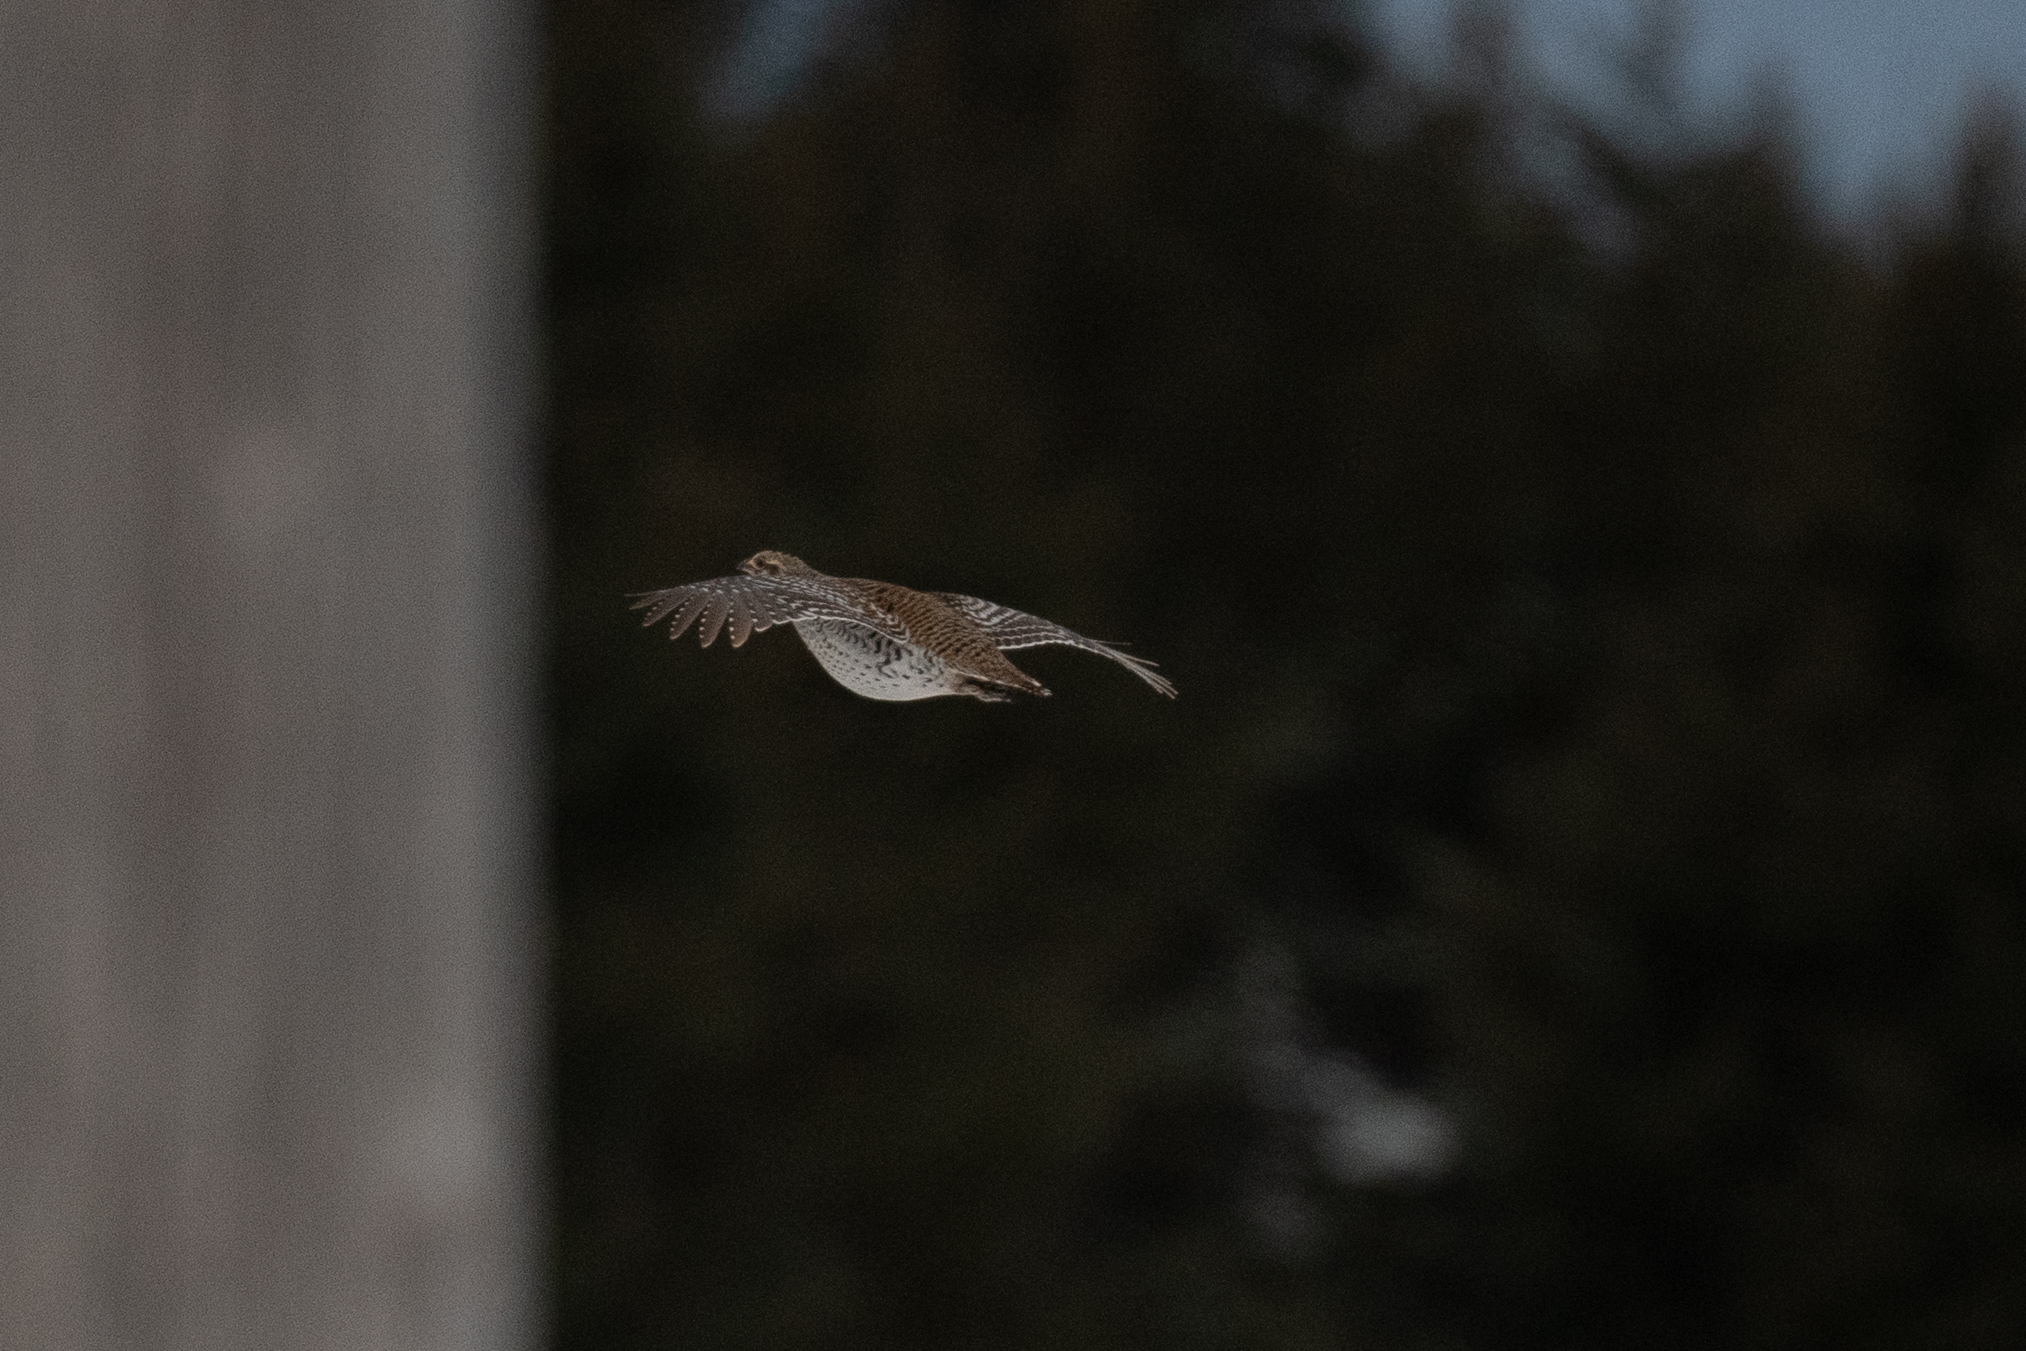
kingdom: Animalia
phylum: Chordata
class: Aves
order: Galliformes
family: Phasianidae
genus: Tympanuchus
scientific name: Tympanuchus phasianellus
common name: Sharp-tailed grouse
